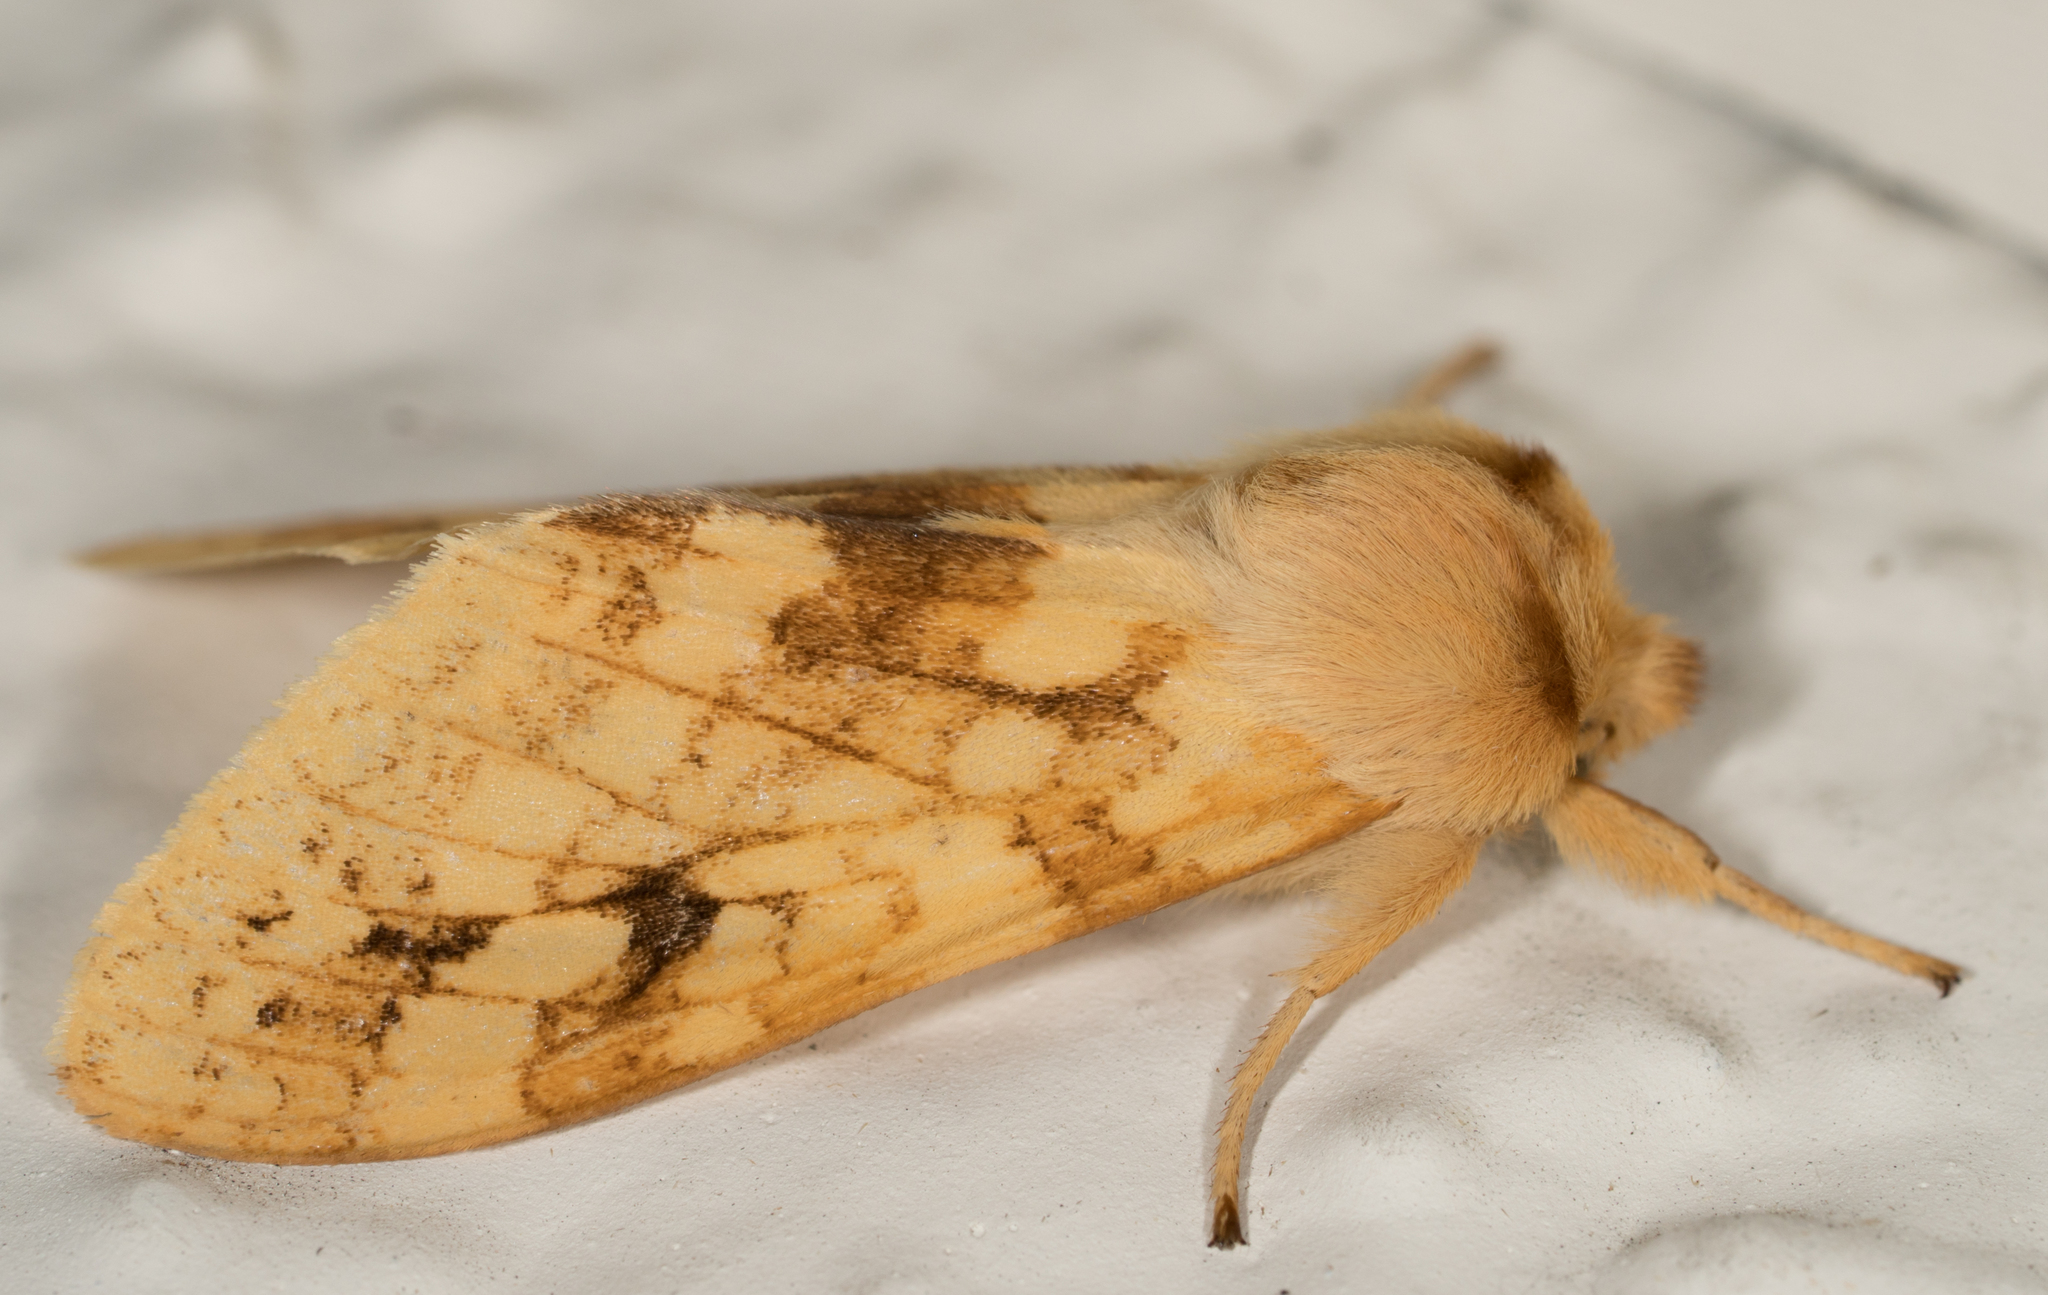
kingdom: Animalia
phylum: Arthropoda
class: Insecta
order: Lepidoptera
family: Erebidae
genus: Lophocampa
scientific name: Lophocampa maculata
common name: Spotted tussock moth
